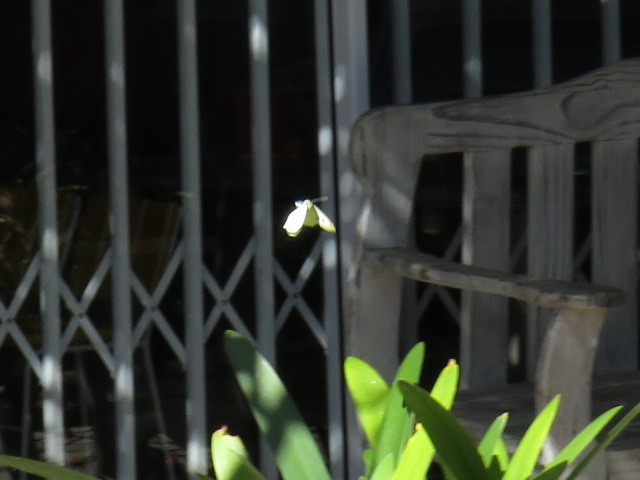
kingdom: Animalia
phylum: Arthropoda
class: Insecta
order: Lepidoptera
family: Pieridae
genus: Pieris
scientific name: Pieris brassicae
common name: Large white
